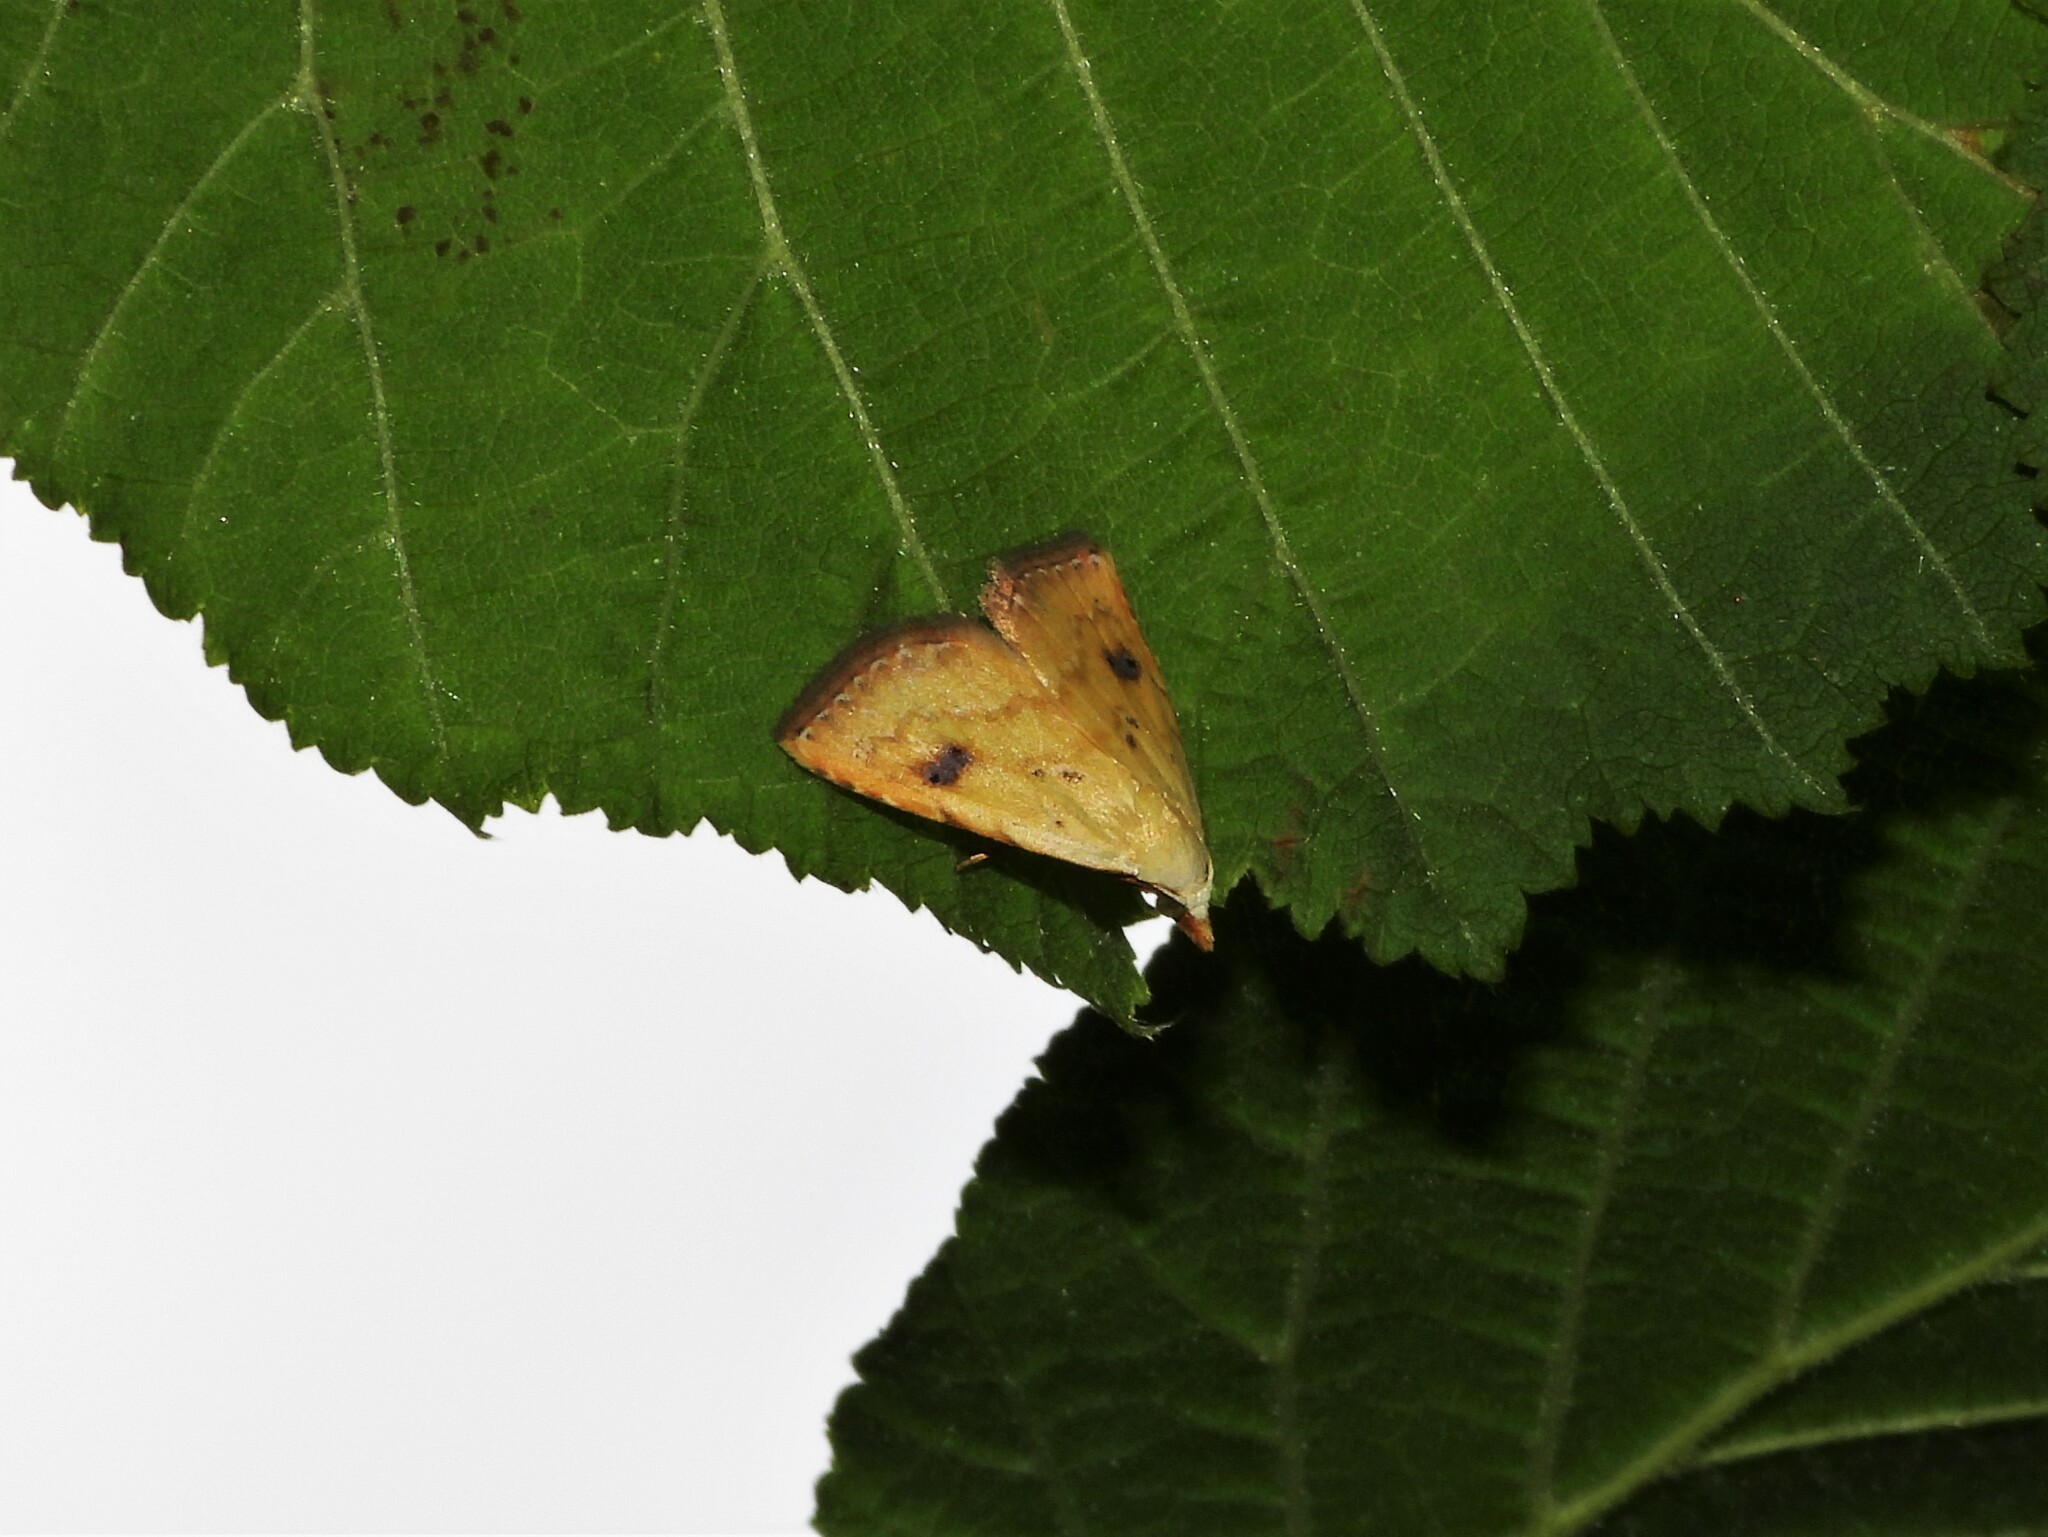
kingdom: Animalia
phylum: Arthropoda
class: Insecta
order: Lepidoptera
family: Erebidae
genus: Rivula
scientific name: Rivula sericealis
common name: Straw dot
